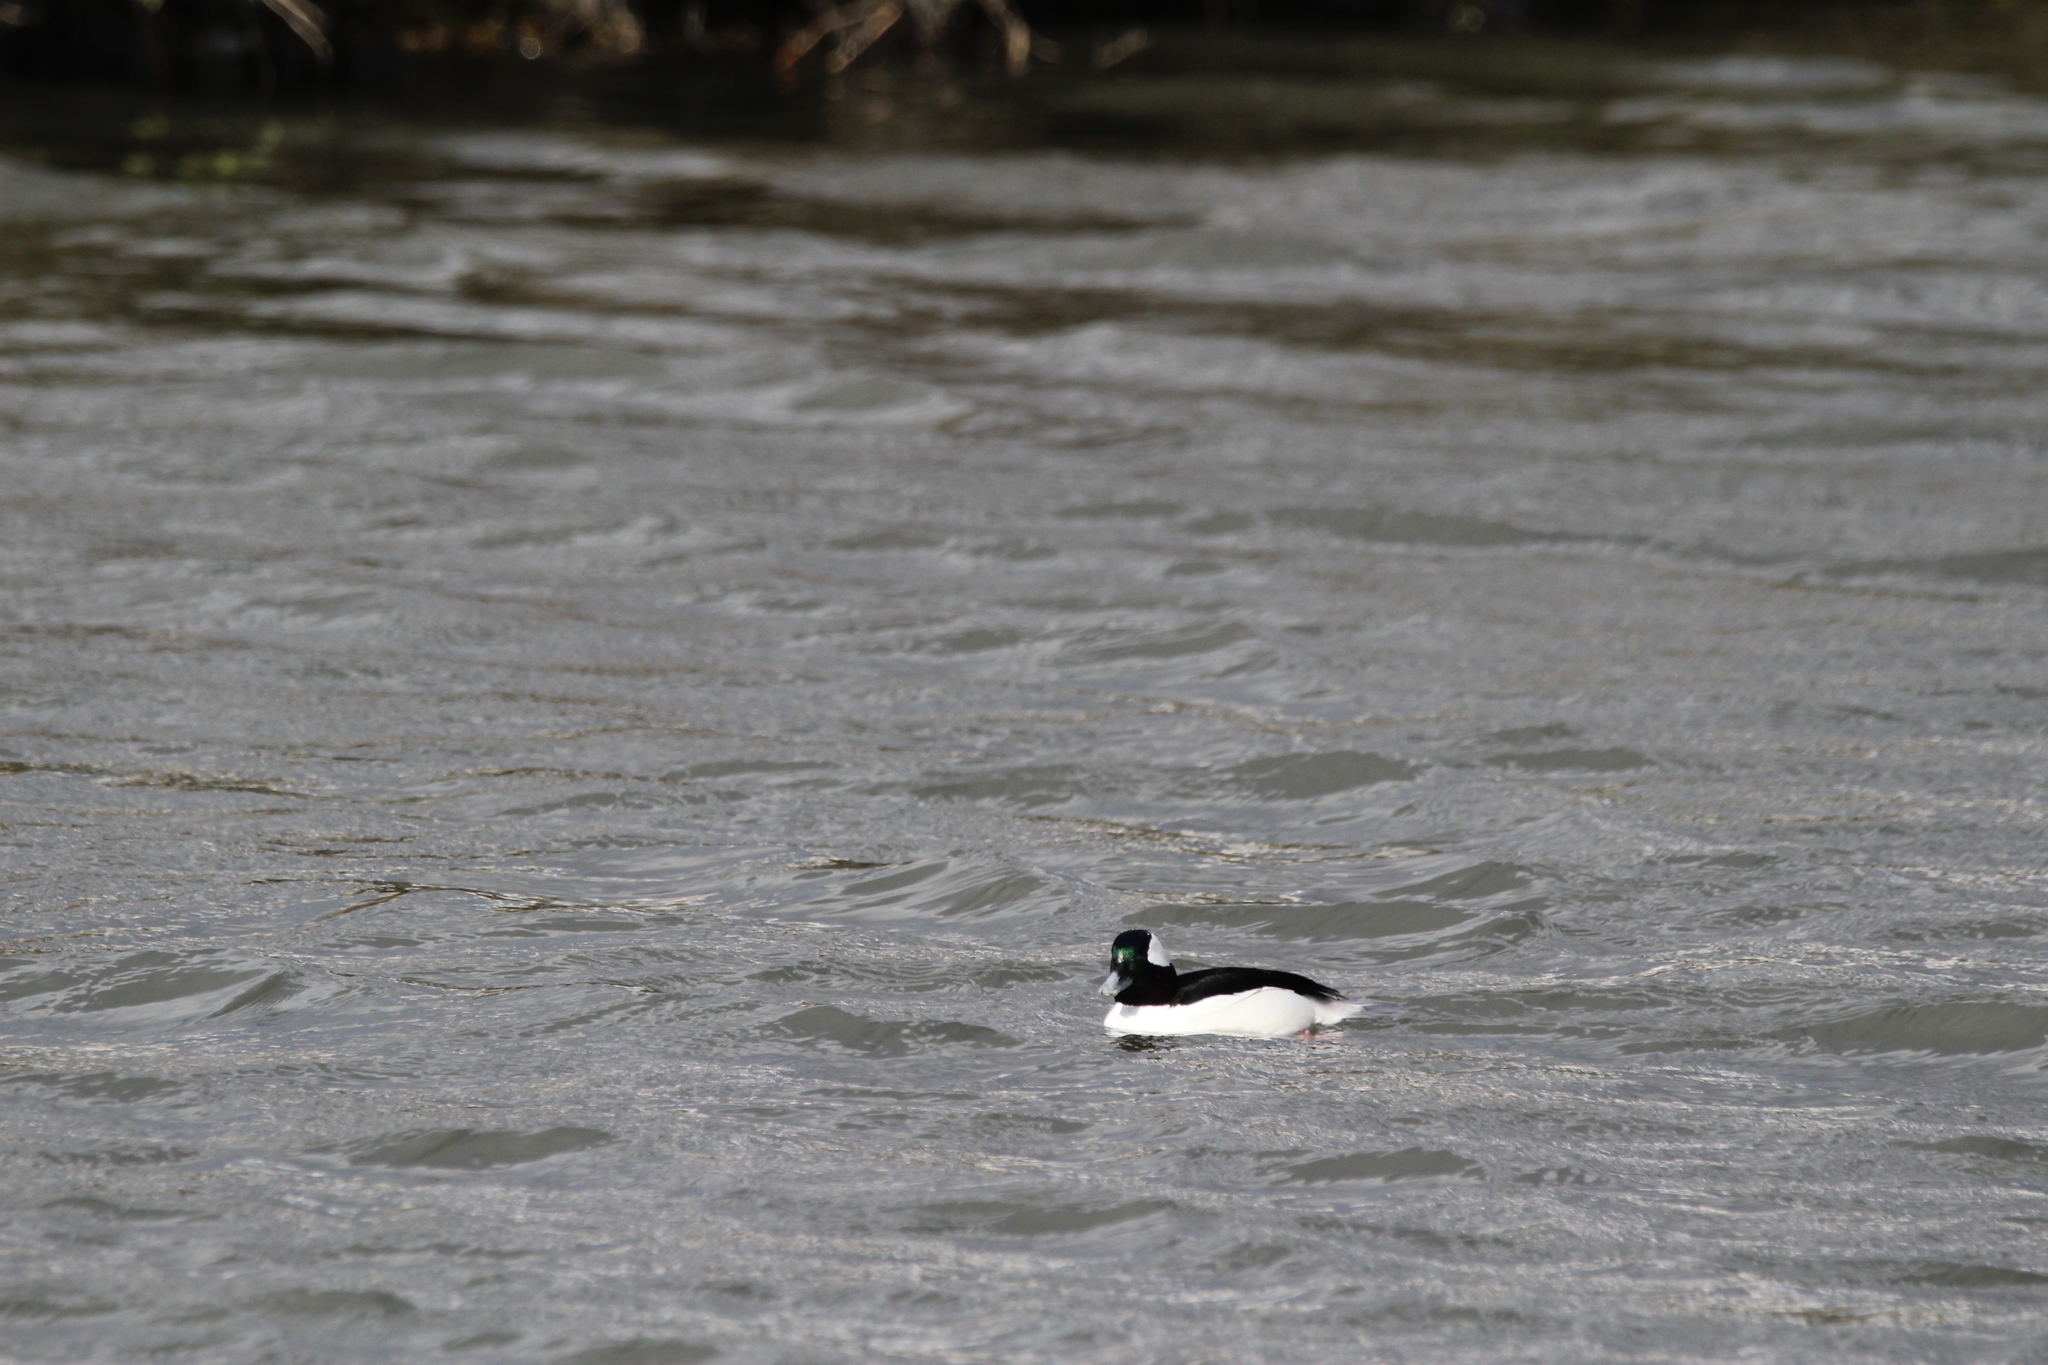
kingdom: Animalia
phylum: Chordata
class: Aves
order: Anseriformes
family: Anatidae
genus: Bucephala
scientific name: Bucephala albeola
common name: Bufflehead
